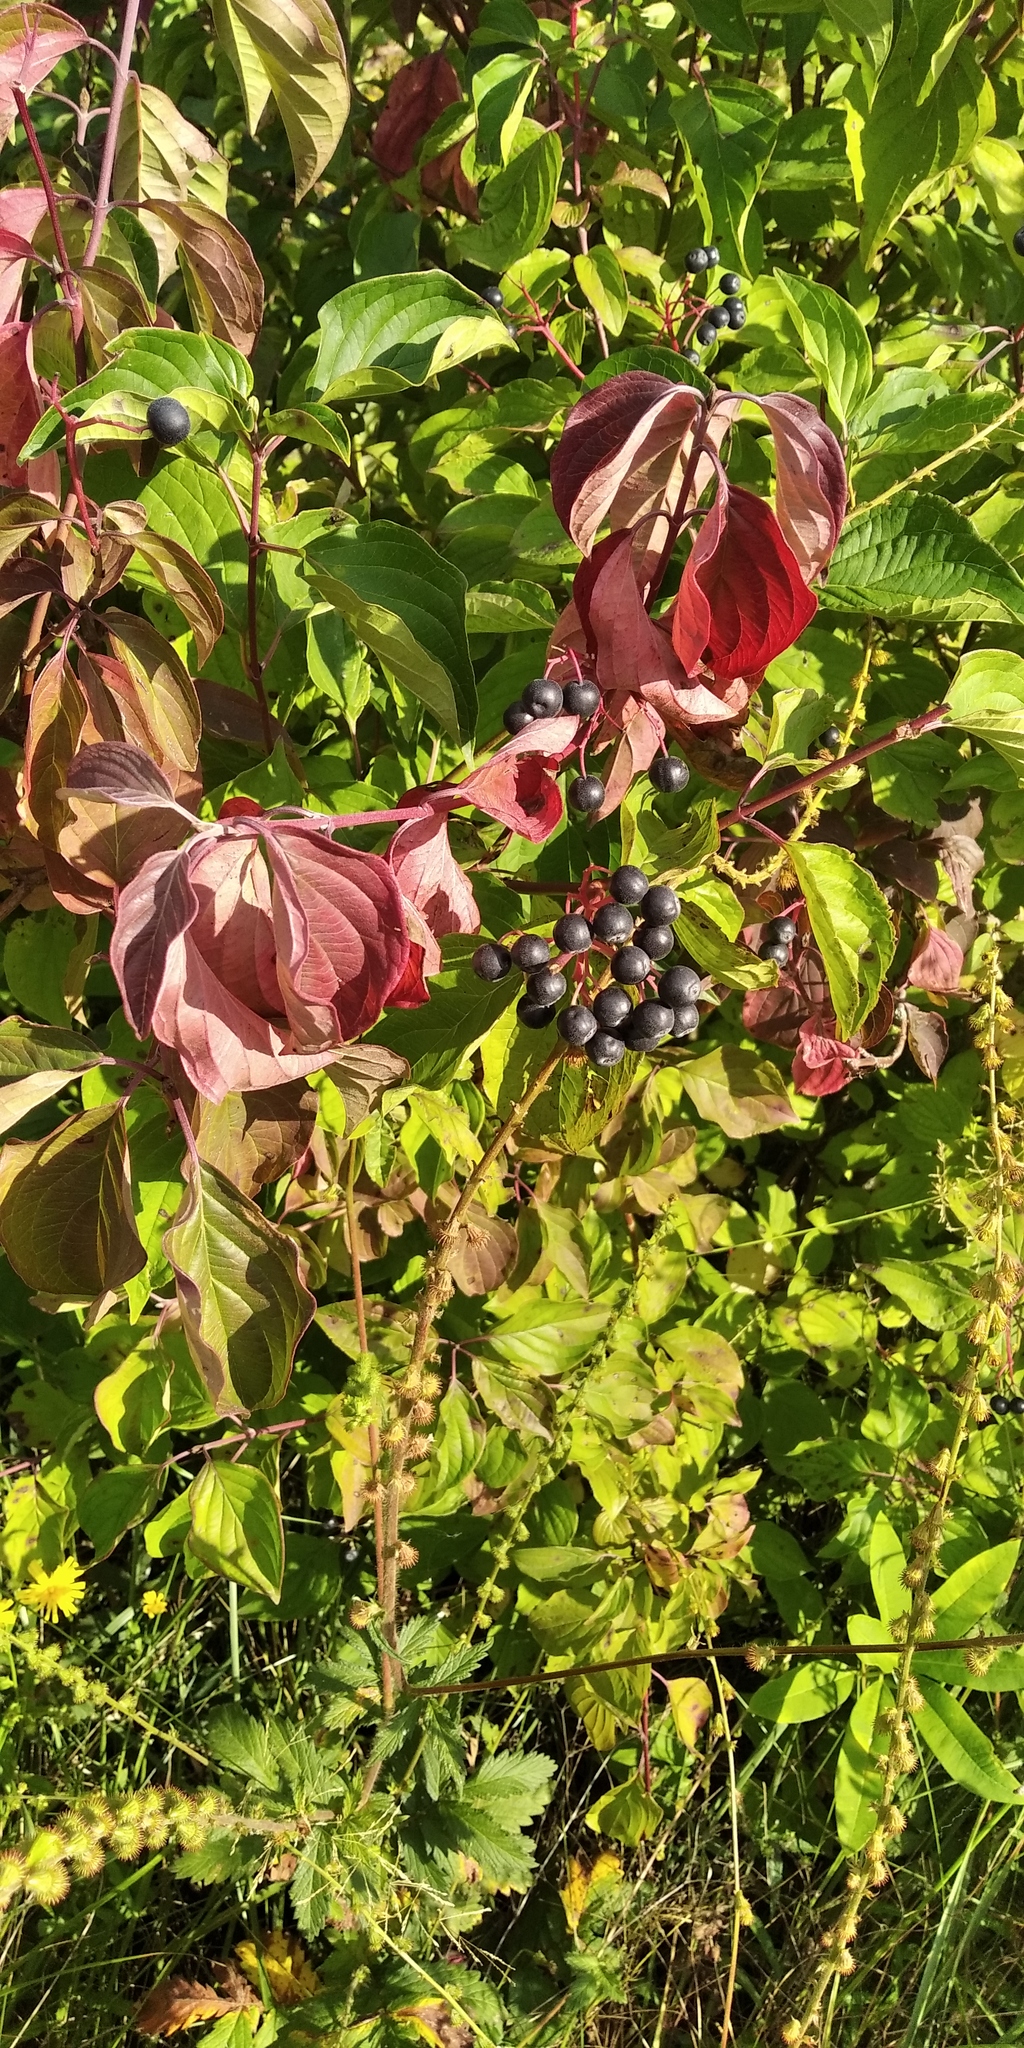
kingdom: Plantae
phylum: Tracheophyta
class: Magnoliopsida
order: Cornales
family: Cornaceae
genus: Cornus
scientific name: Cornus sanguinea
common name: Dogwood
